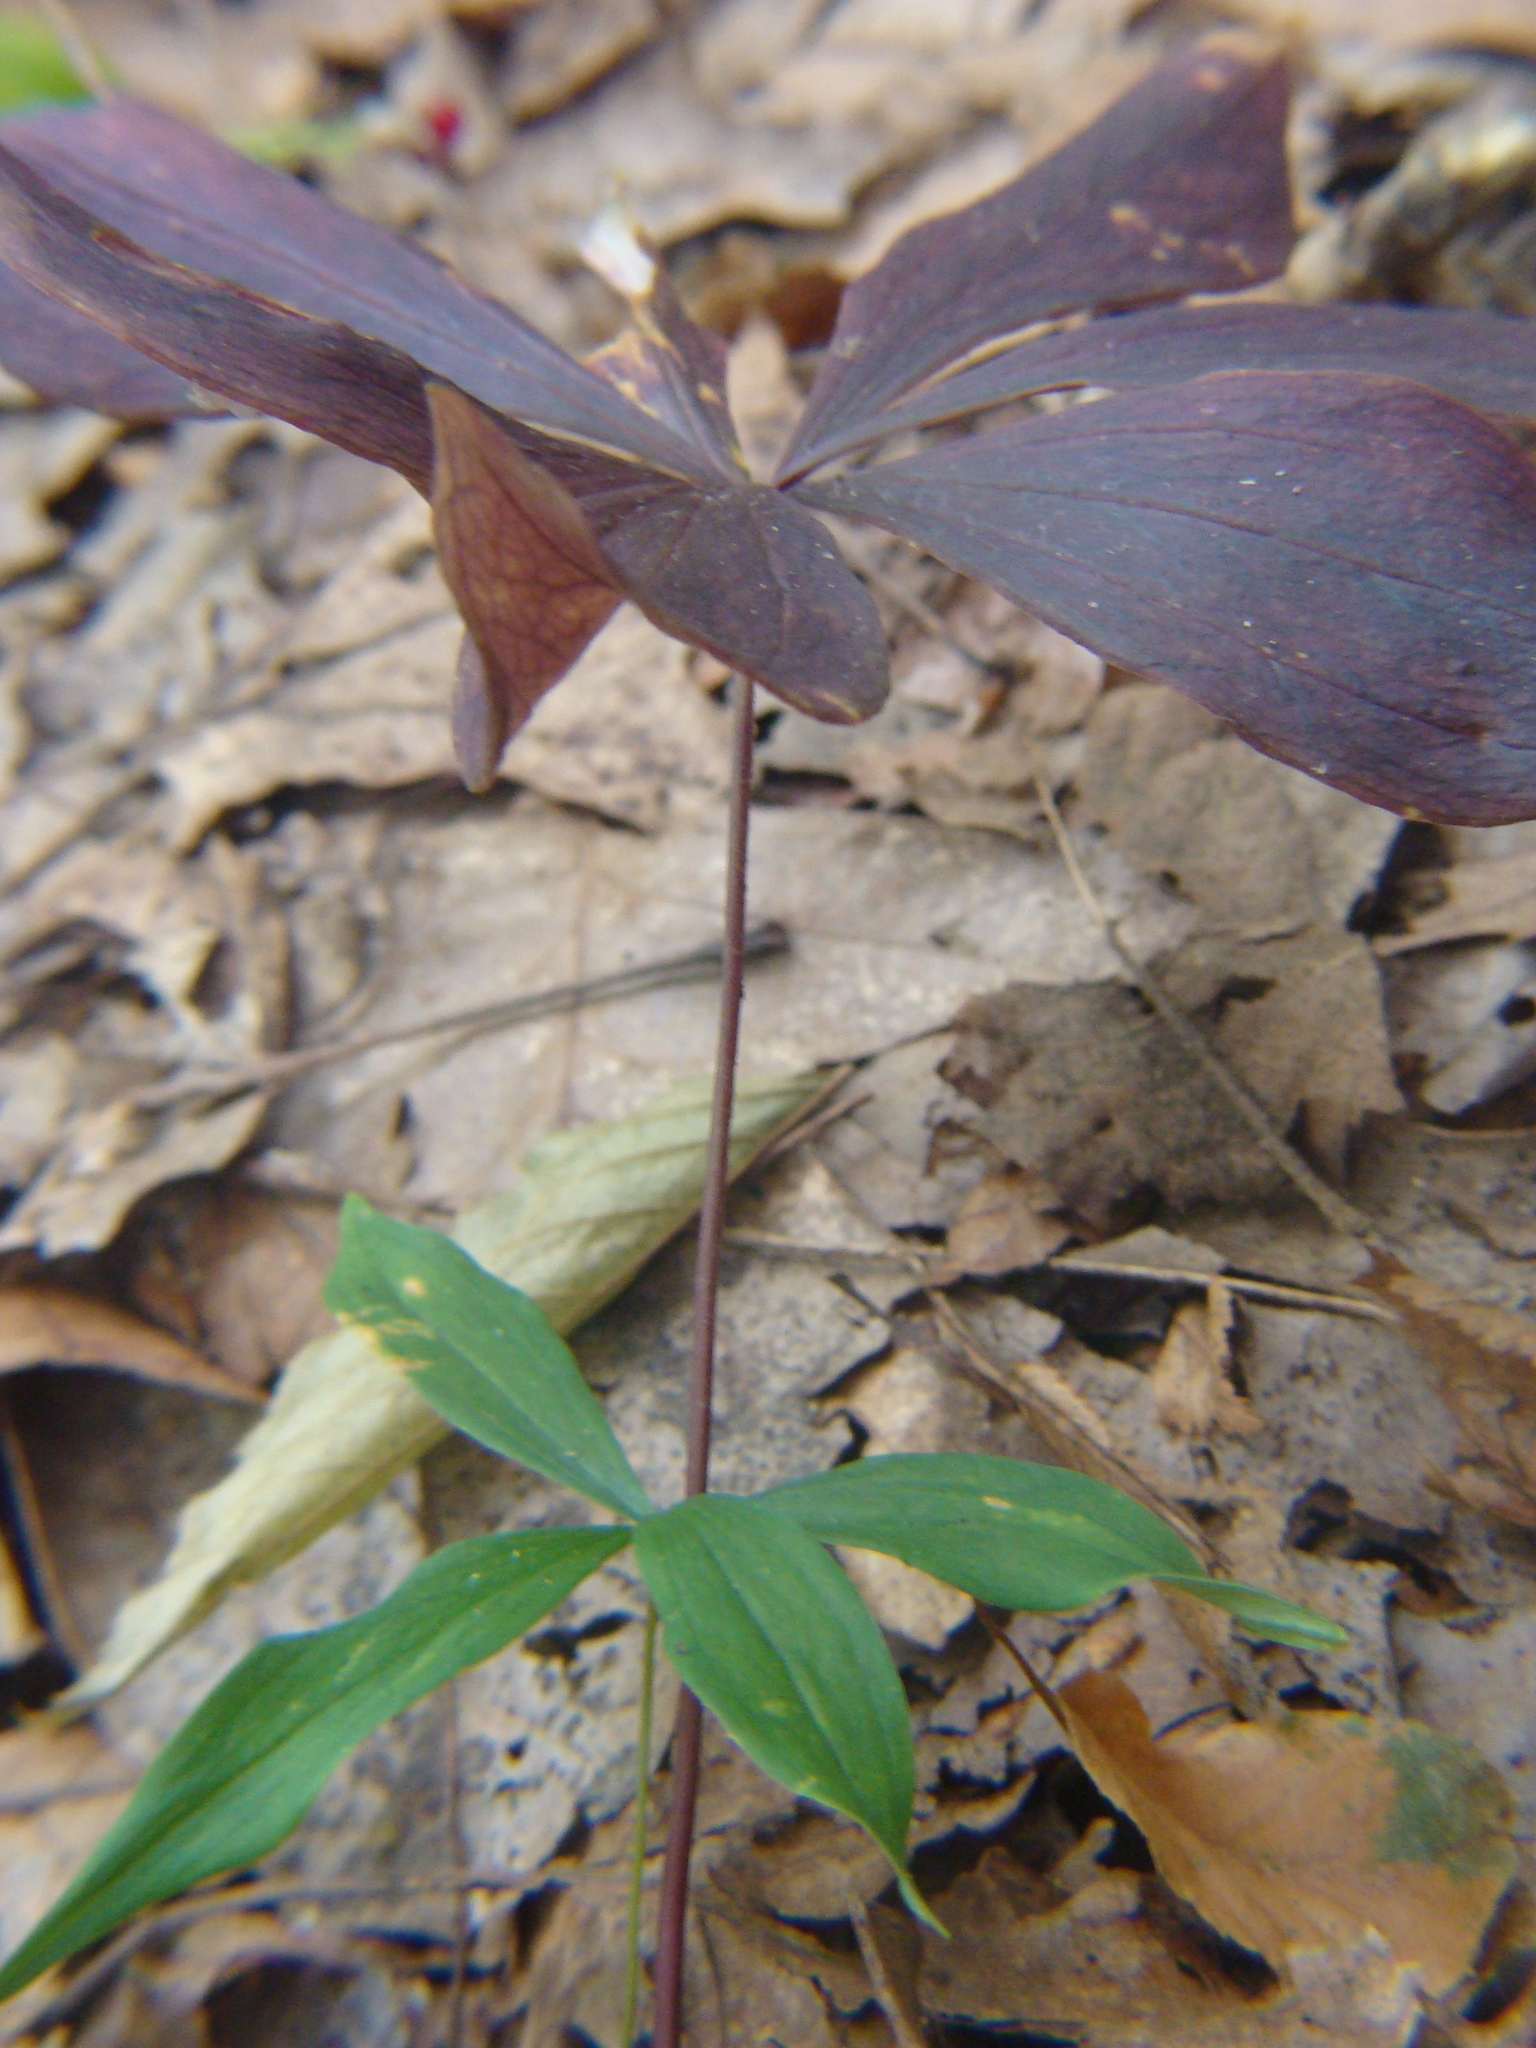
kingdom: Plantae
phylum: Tracheophyta
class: Liliopsida
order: Liliales
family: Liliaceae
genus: Medeola
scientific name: Medeola virginiana
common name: Indian cucumber-root
